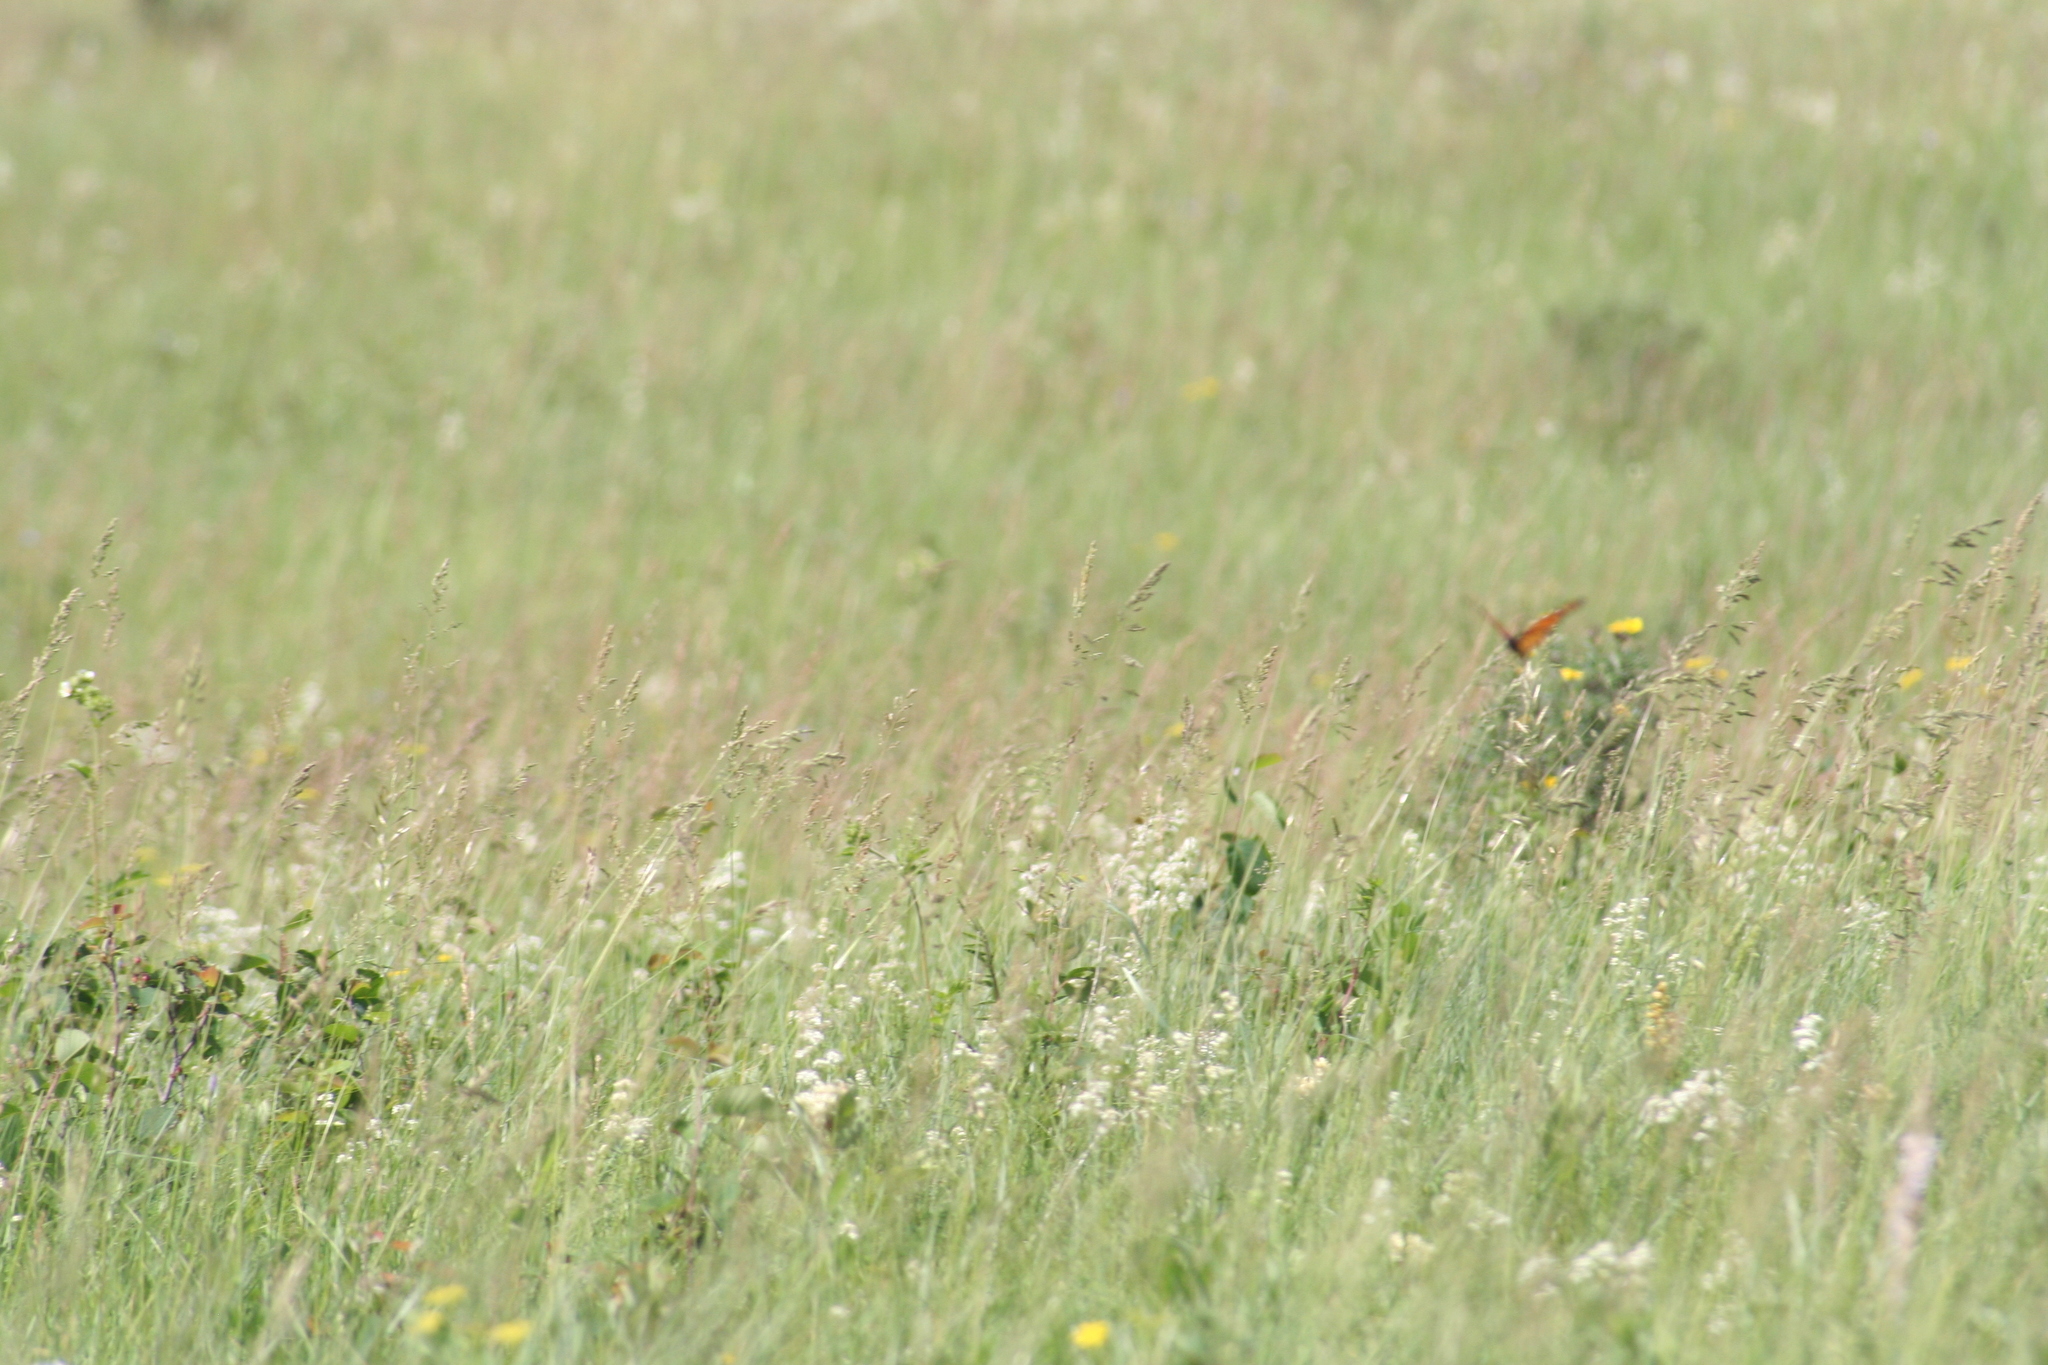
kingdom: Animalia
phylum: Arthropoda
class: Insecta
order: Lepidoptera
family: Nymphalidae
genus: Danaus
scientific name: Danaus plexippus
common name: Monarch
